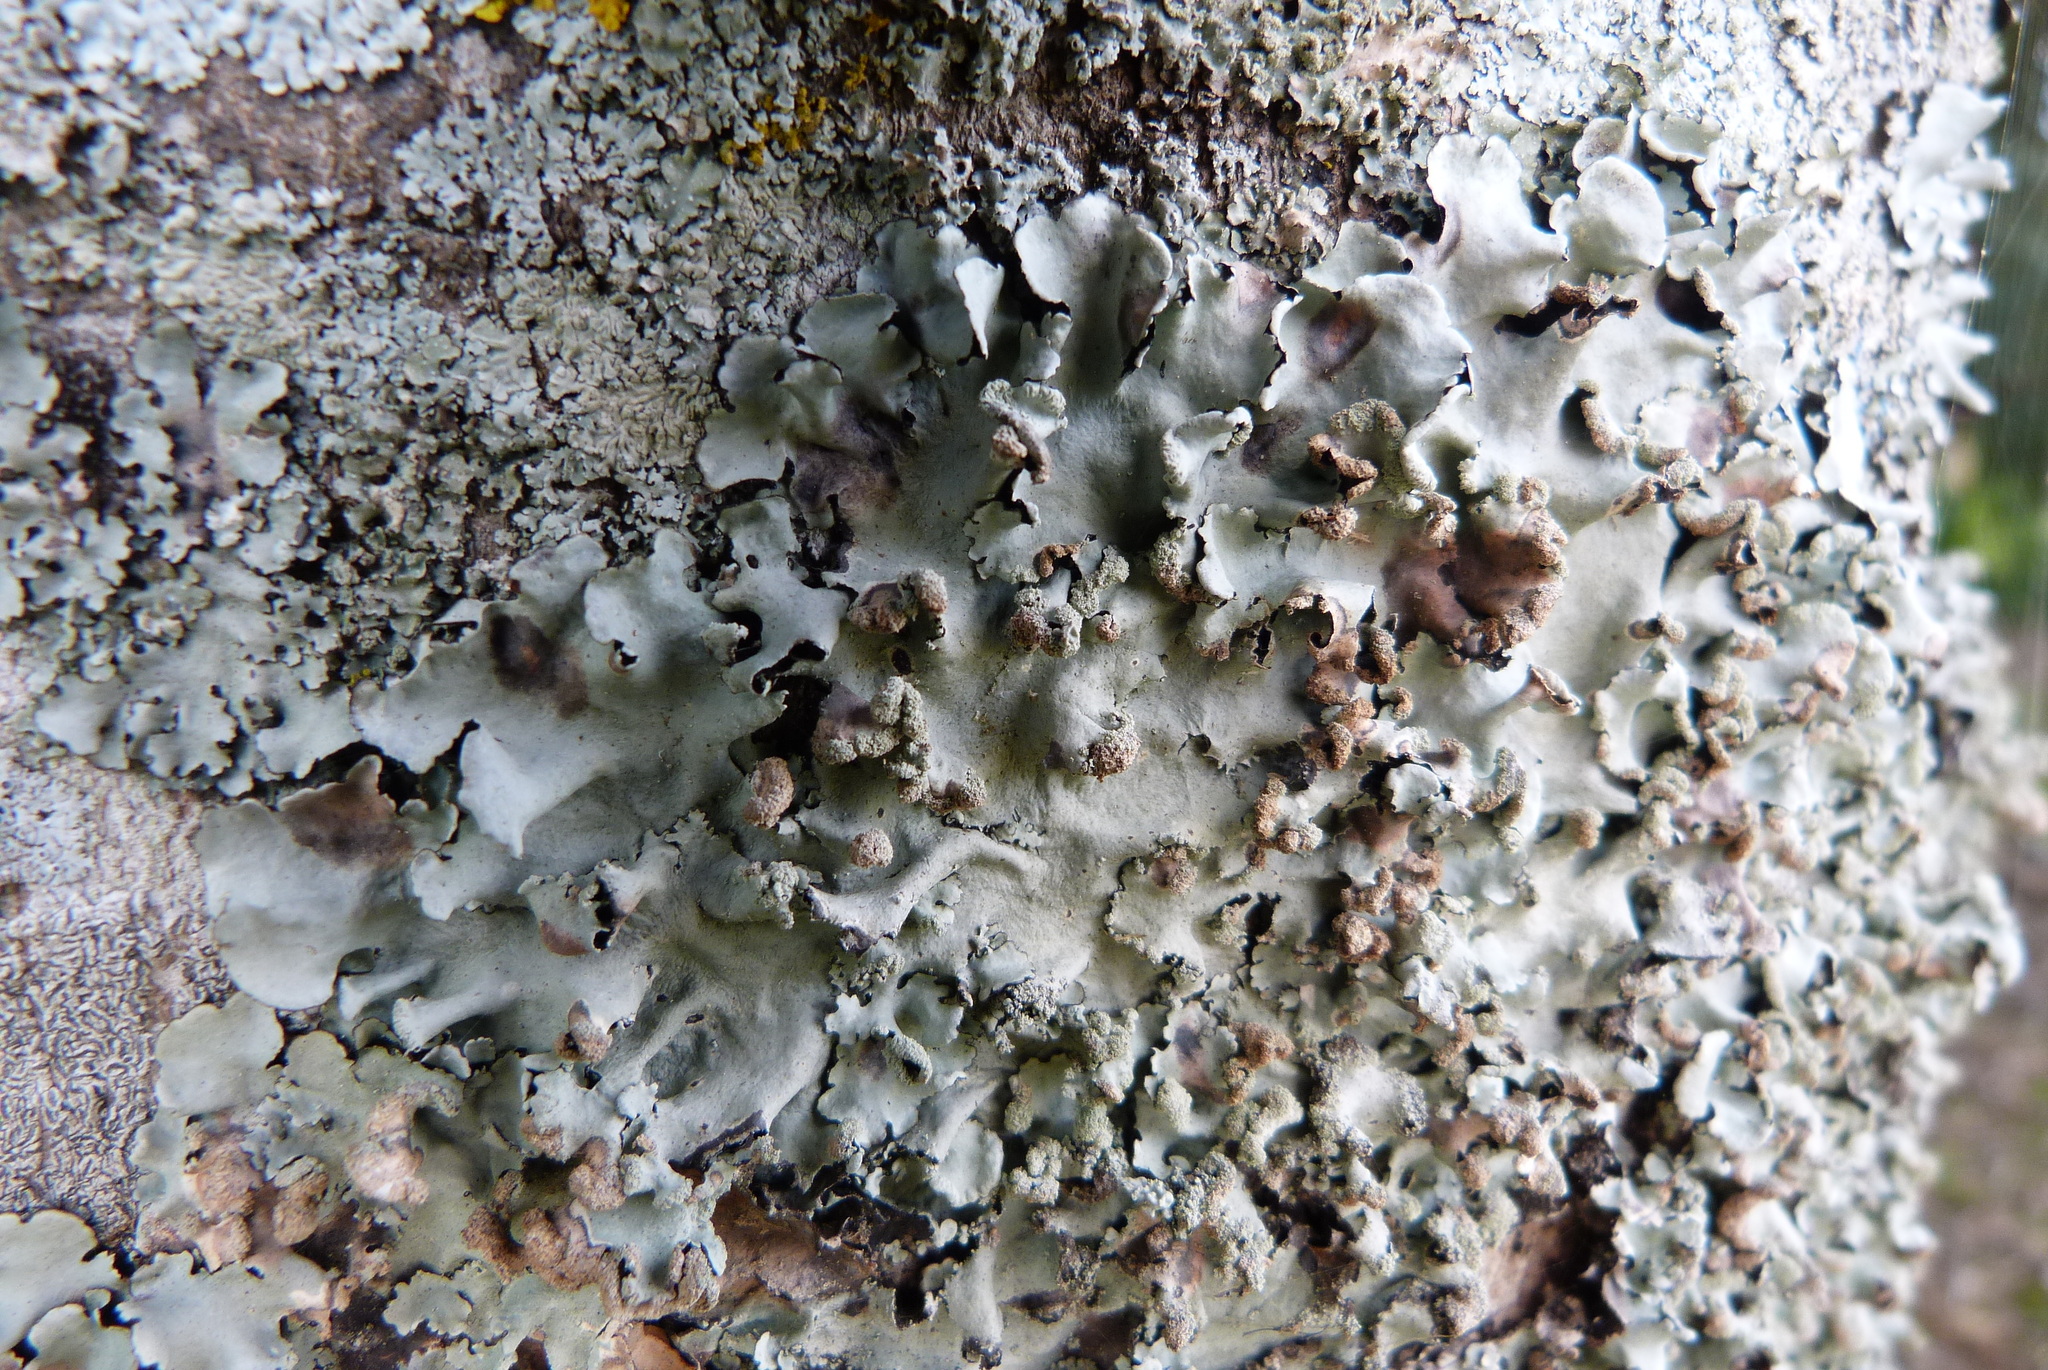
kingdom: Fungi
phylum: Ascomycota
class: Lecanoromycetes
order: Lecanorales
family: Parmeliaceae
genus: Parmotrema
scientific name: Parmotrema perlatum
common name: Black stone flower
